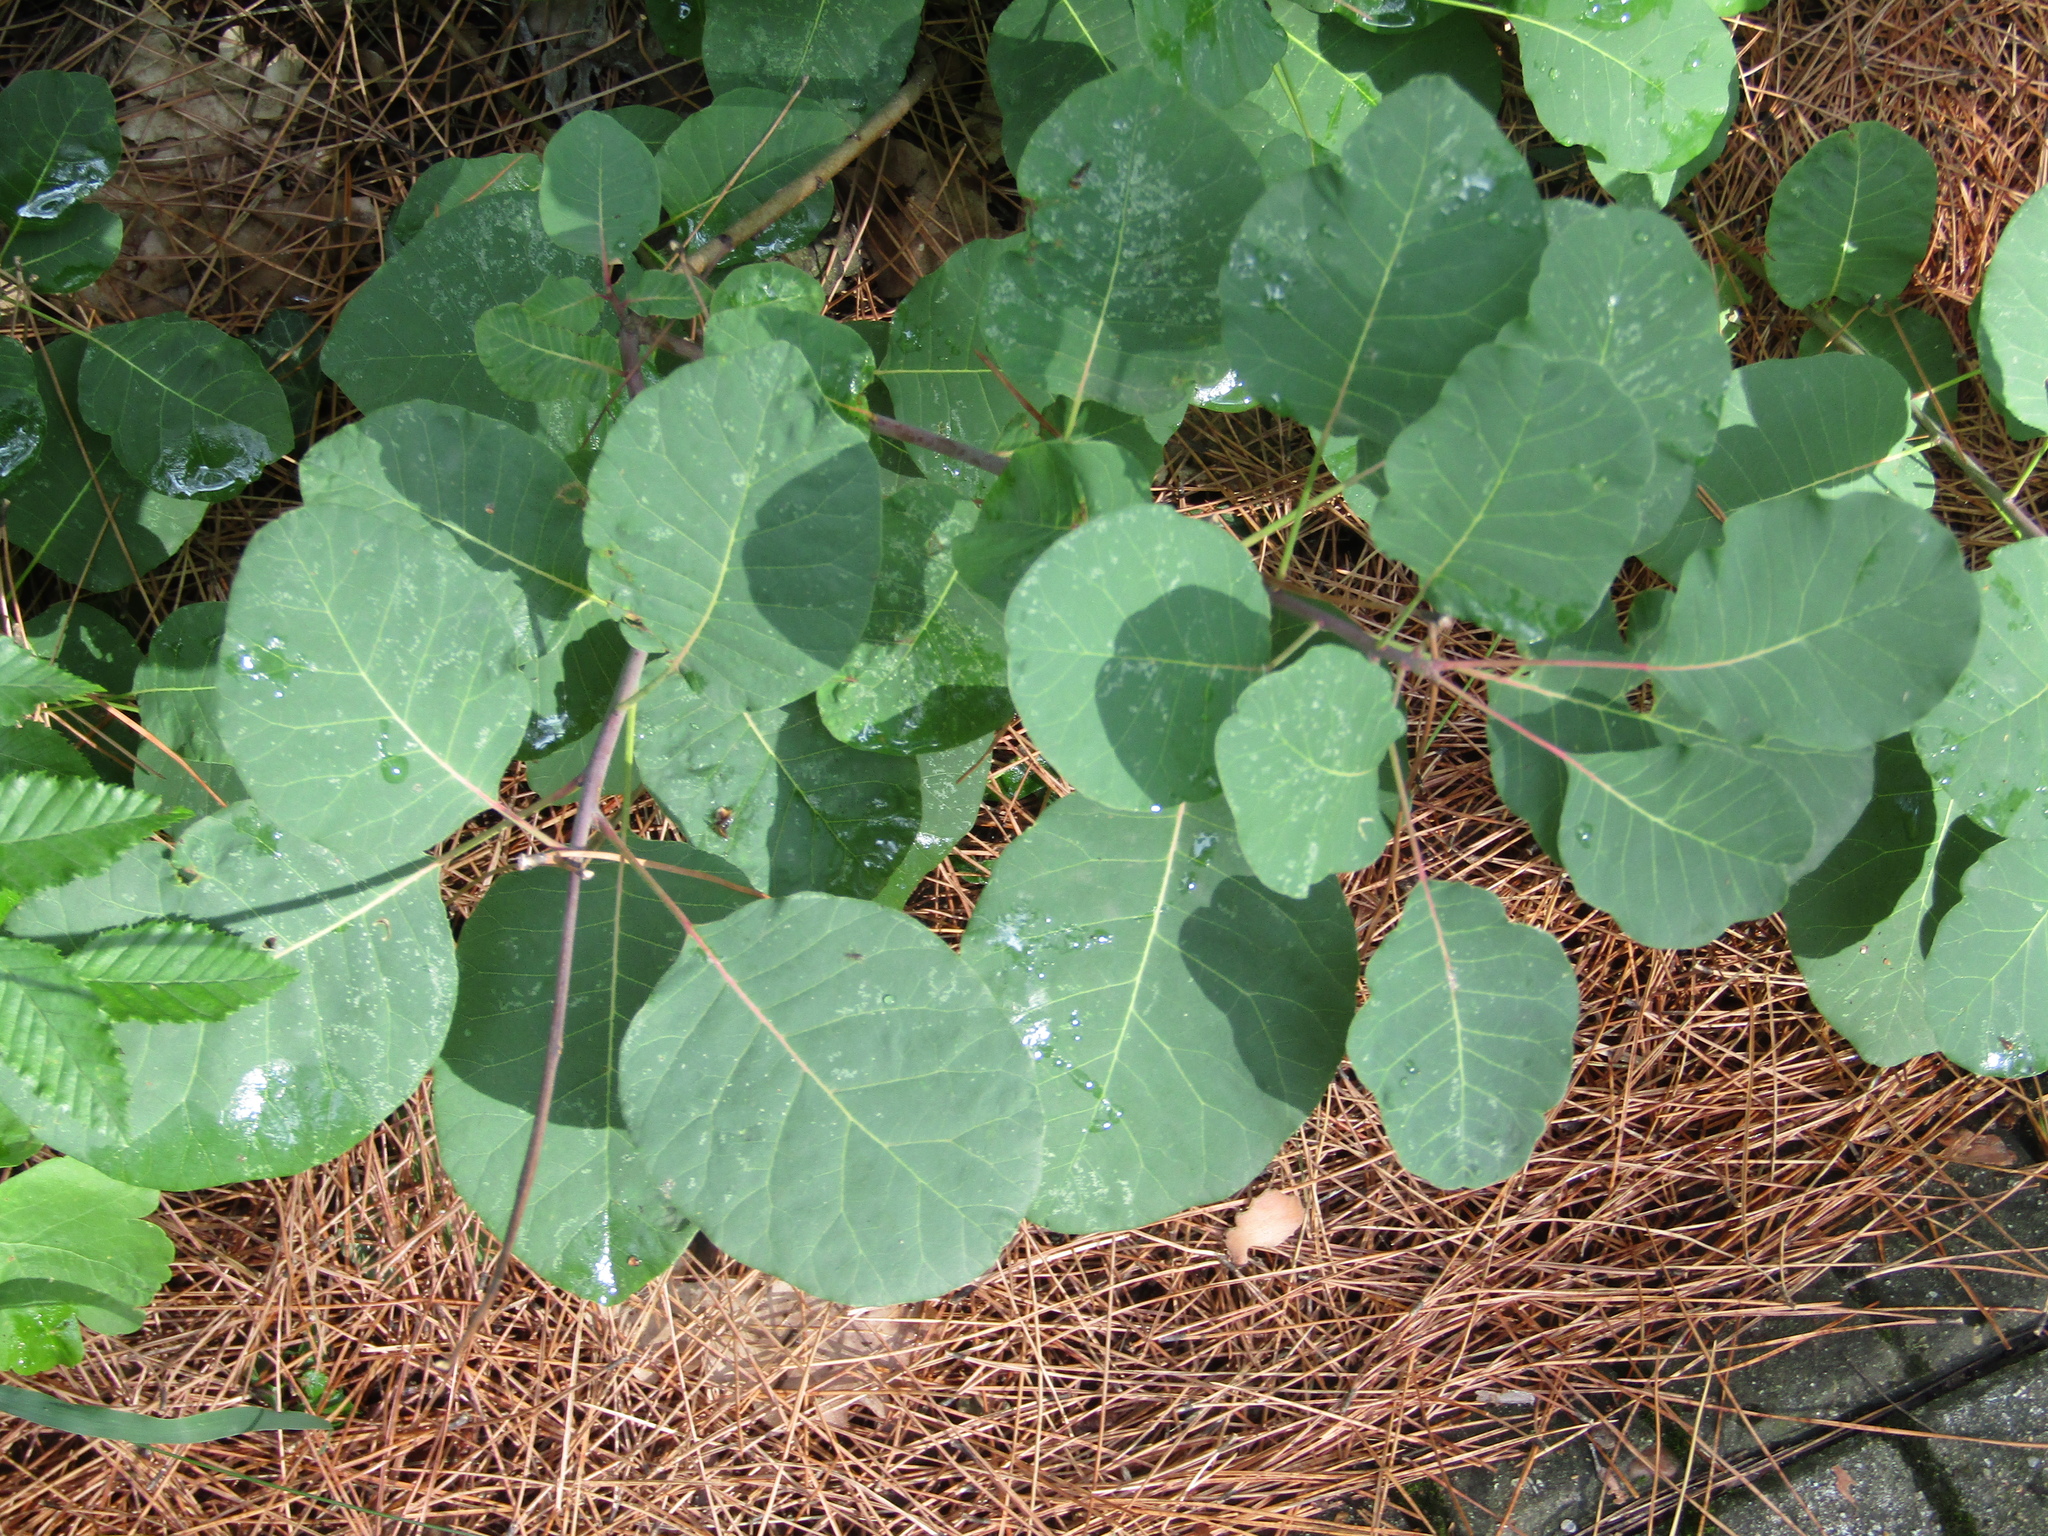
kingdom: Plantae
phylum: Tracheophyta
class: Magnoliopsida
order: Sapindales
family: Anacardiaceae
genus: Cotinus
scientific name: Cotinus coggygria
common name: Smoke-tree
